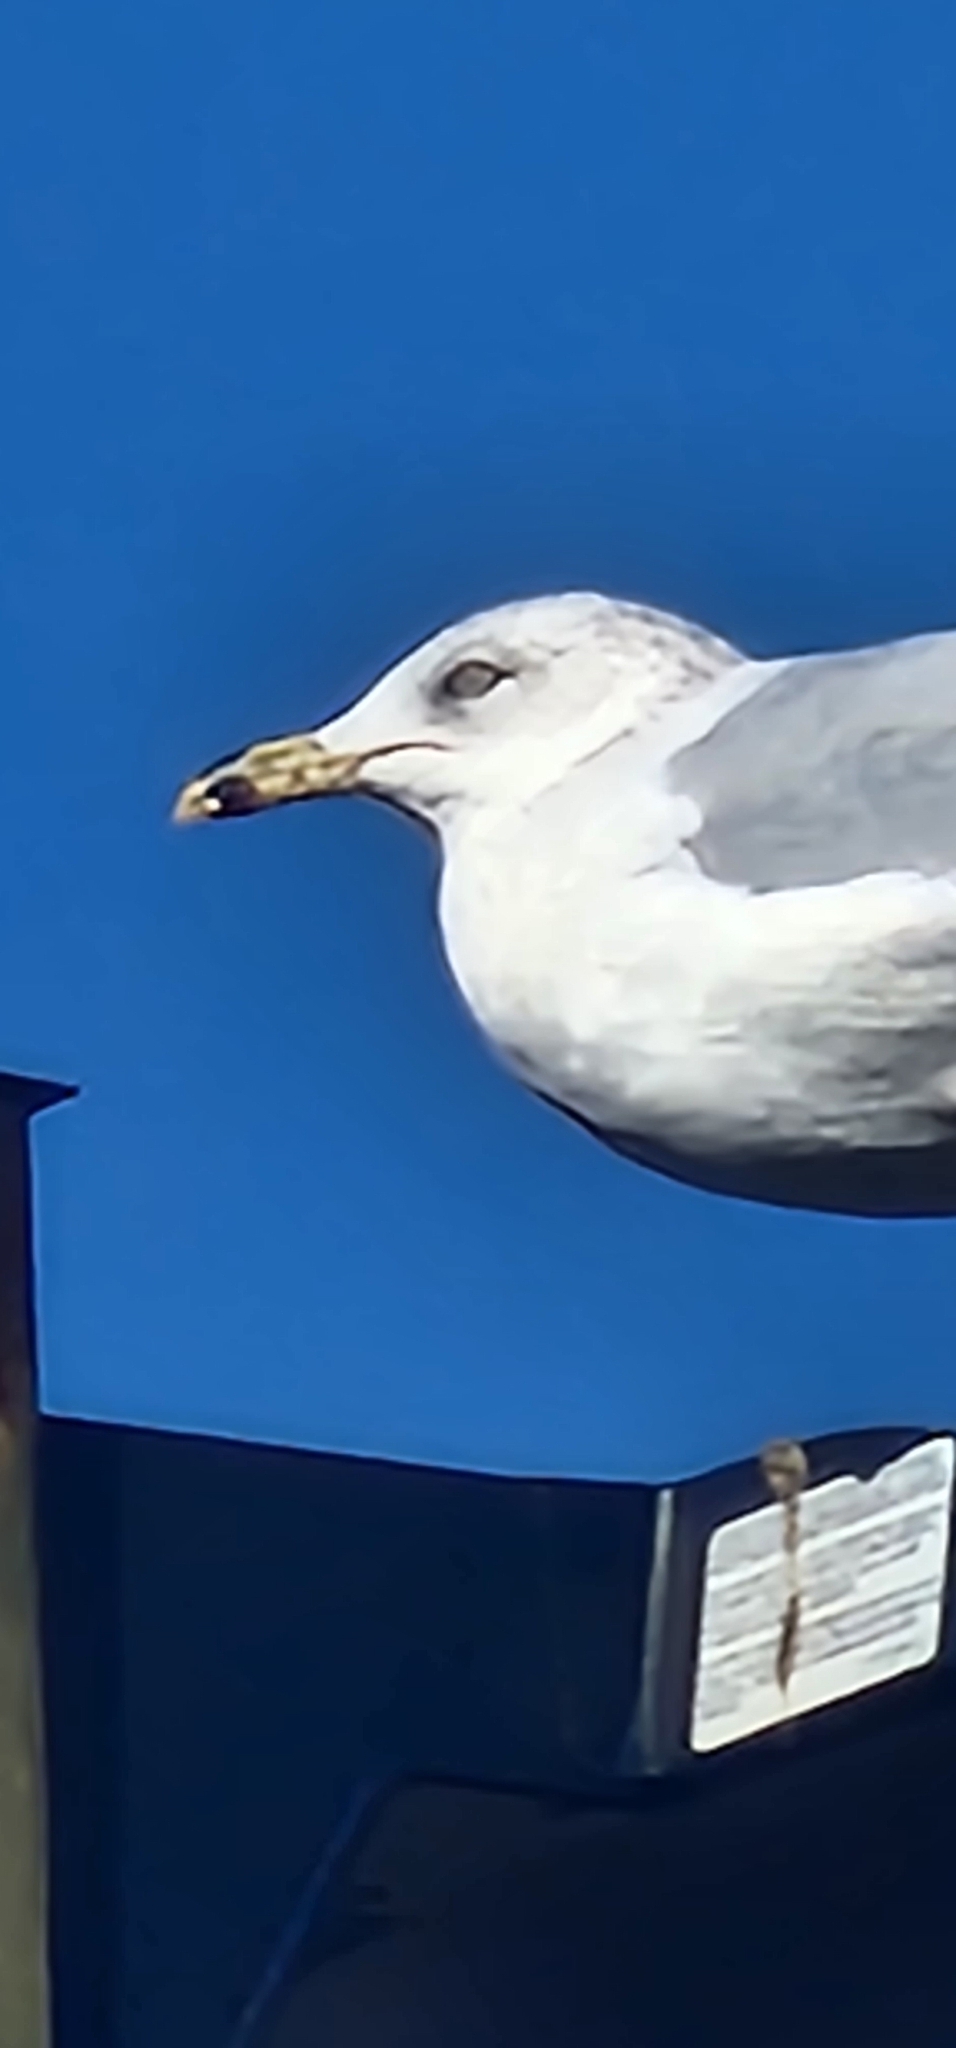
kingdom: Animalia
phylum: Chordata
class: Aves
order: Charadriiformes
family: Laridae
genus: Larus
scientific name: Larus delawarensis
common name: Ring-billed gull
